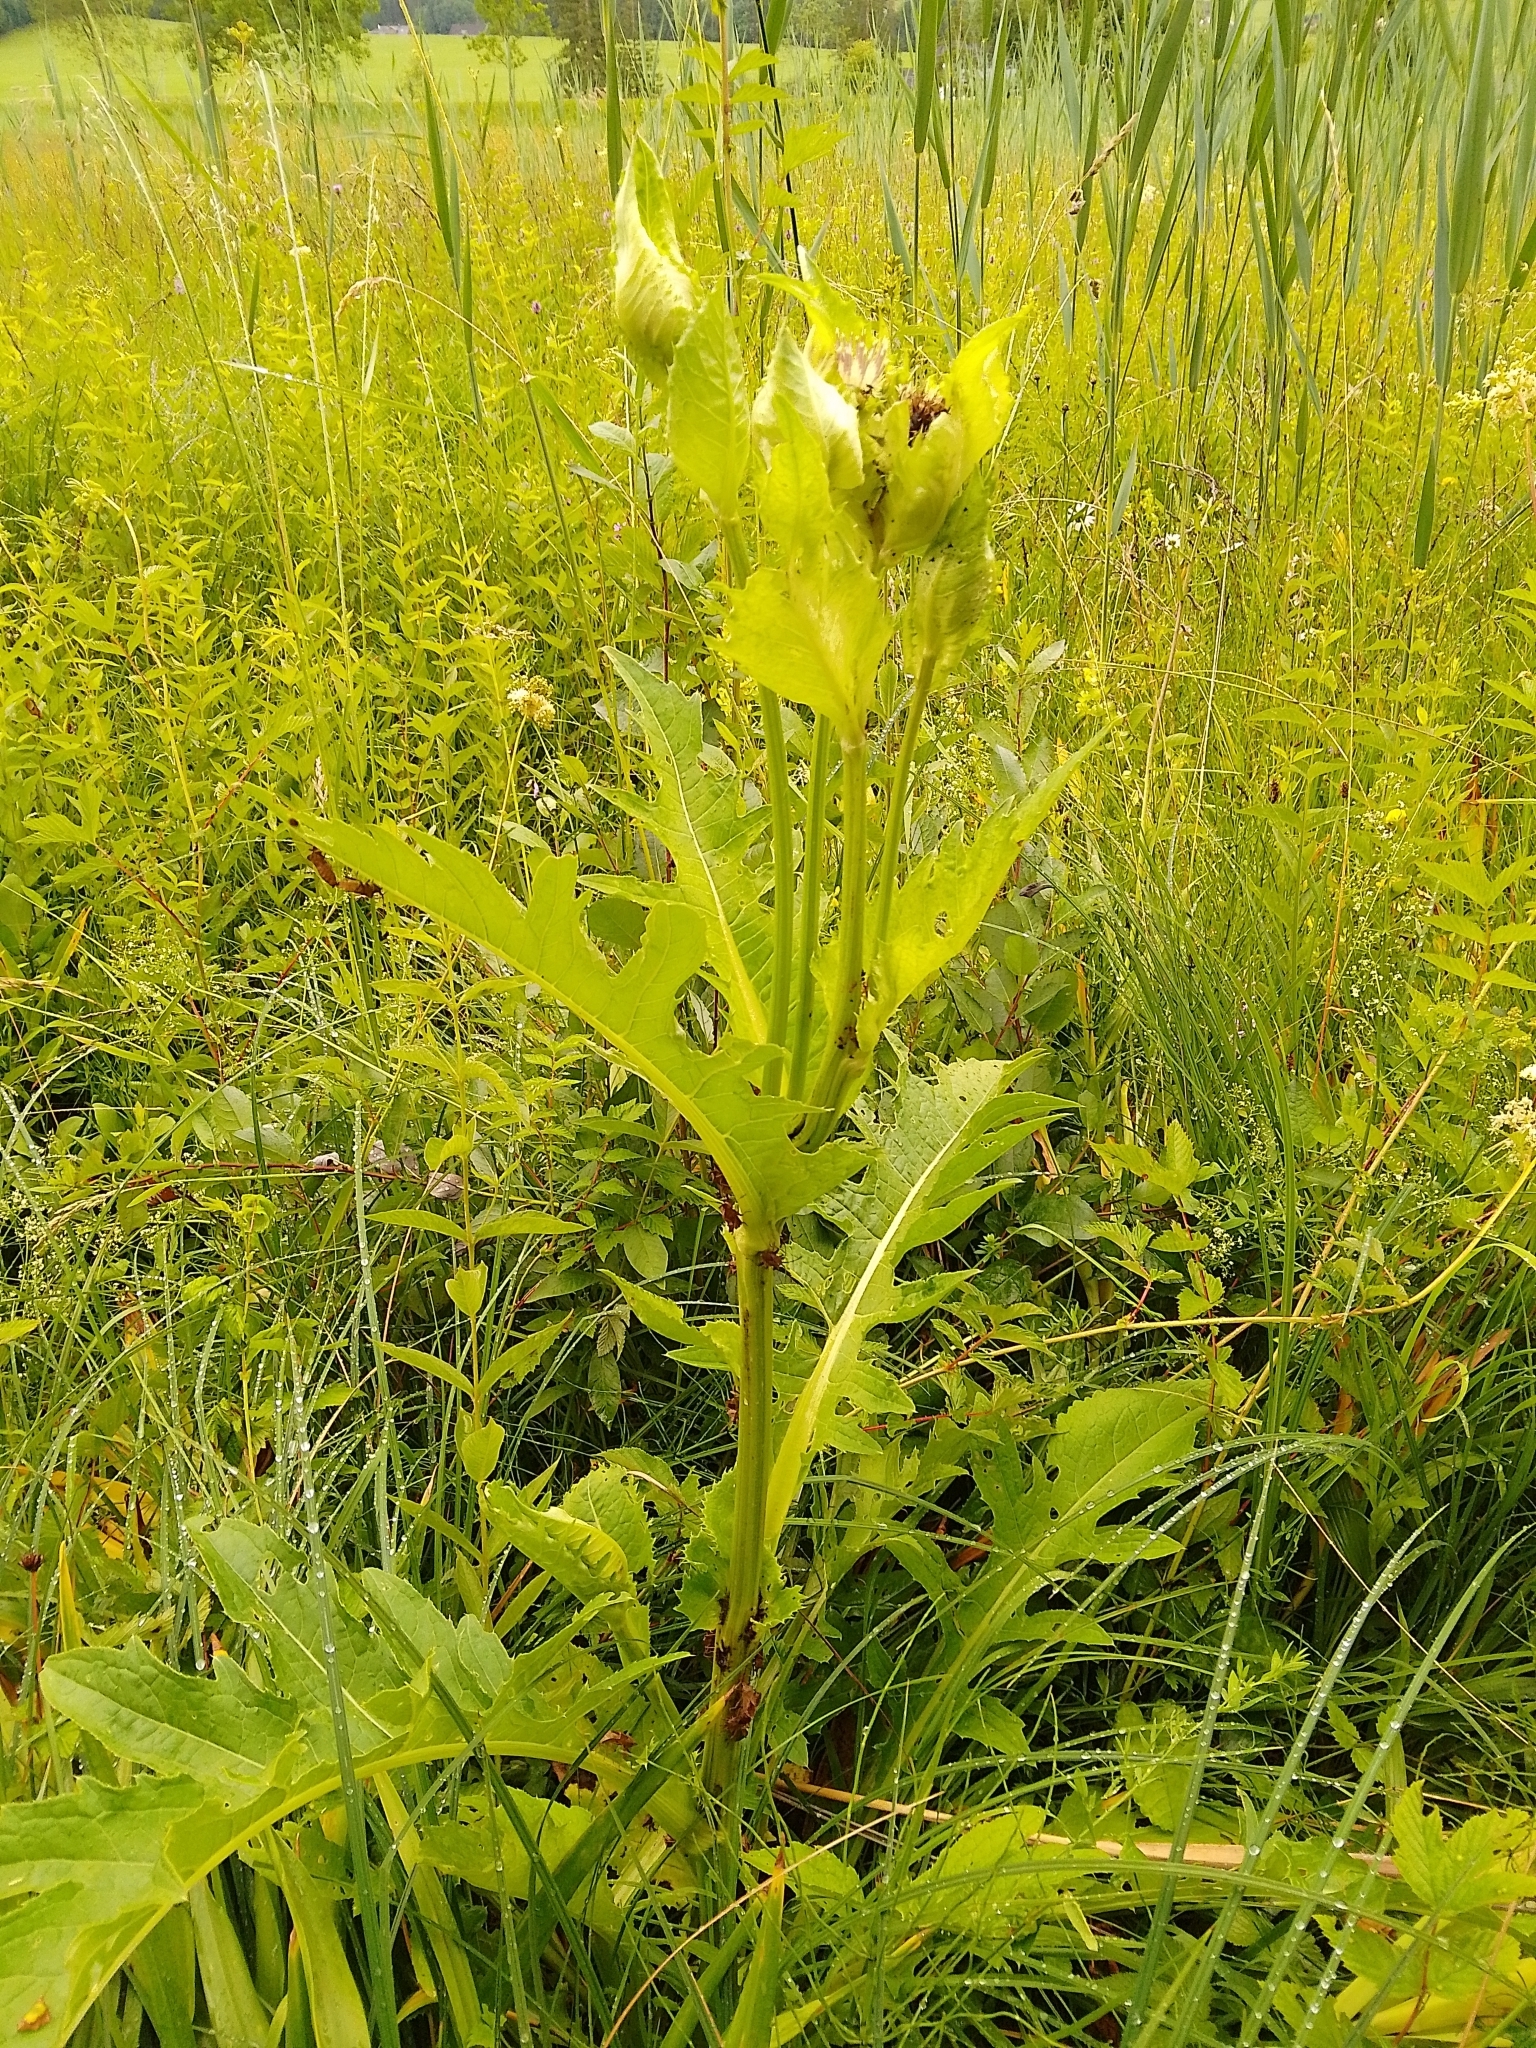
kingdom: Plantae
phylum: Tracheophyta
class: Magnoliopsida
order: Asterales
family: Asteraceae
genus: Cirsium
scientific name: Cirsium oleraceum
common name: Cabbage thistle
